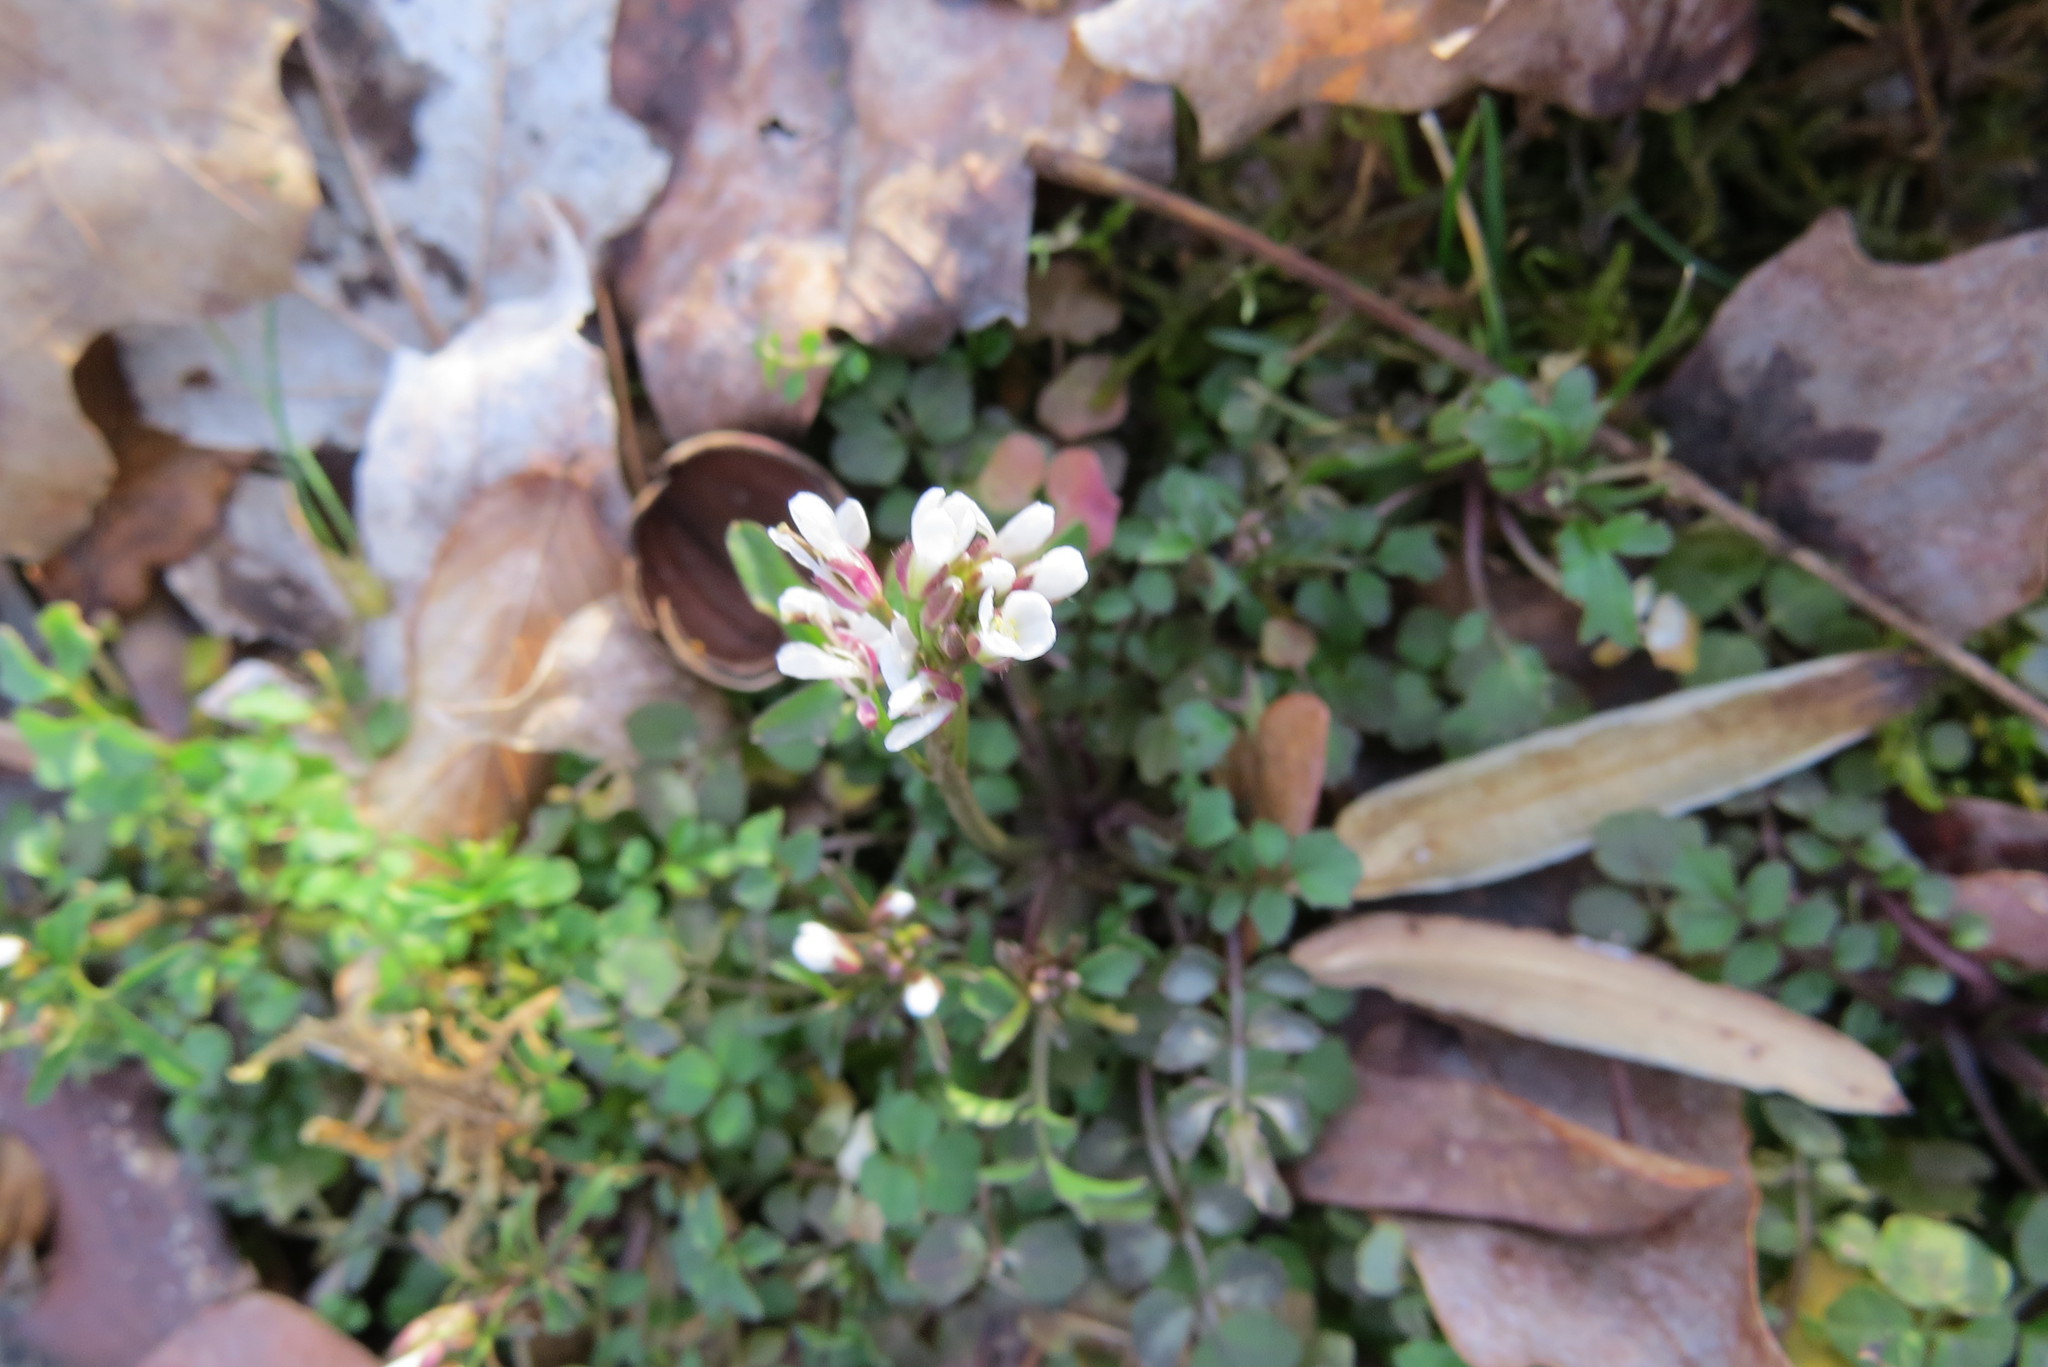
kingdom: Plantae
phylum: Tracheophyta
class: Magnoliopsida
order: Brassicales
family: Brassicaceae
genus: Cardamine
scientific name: Cardamine hirsuta
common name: Hairy bittercress
